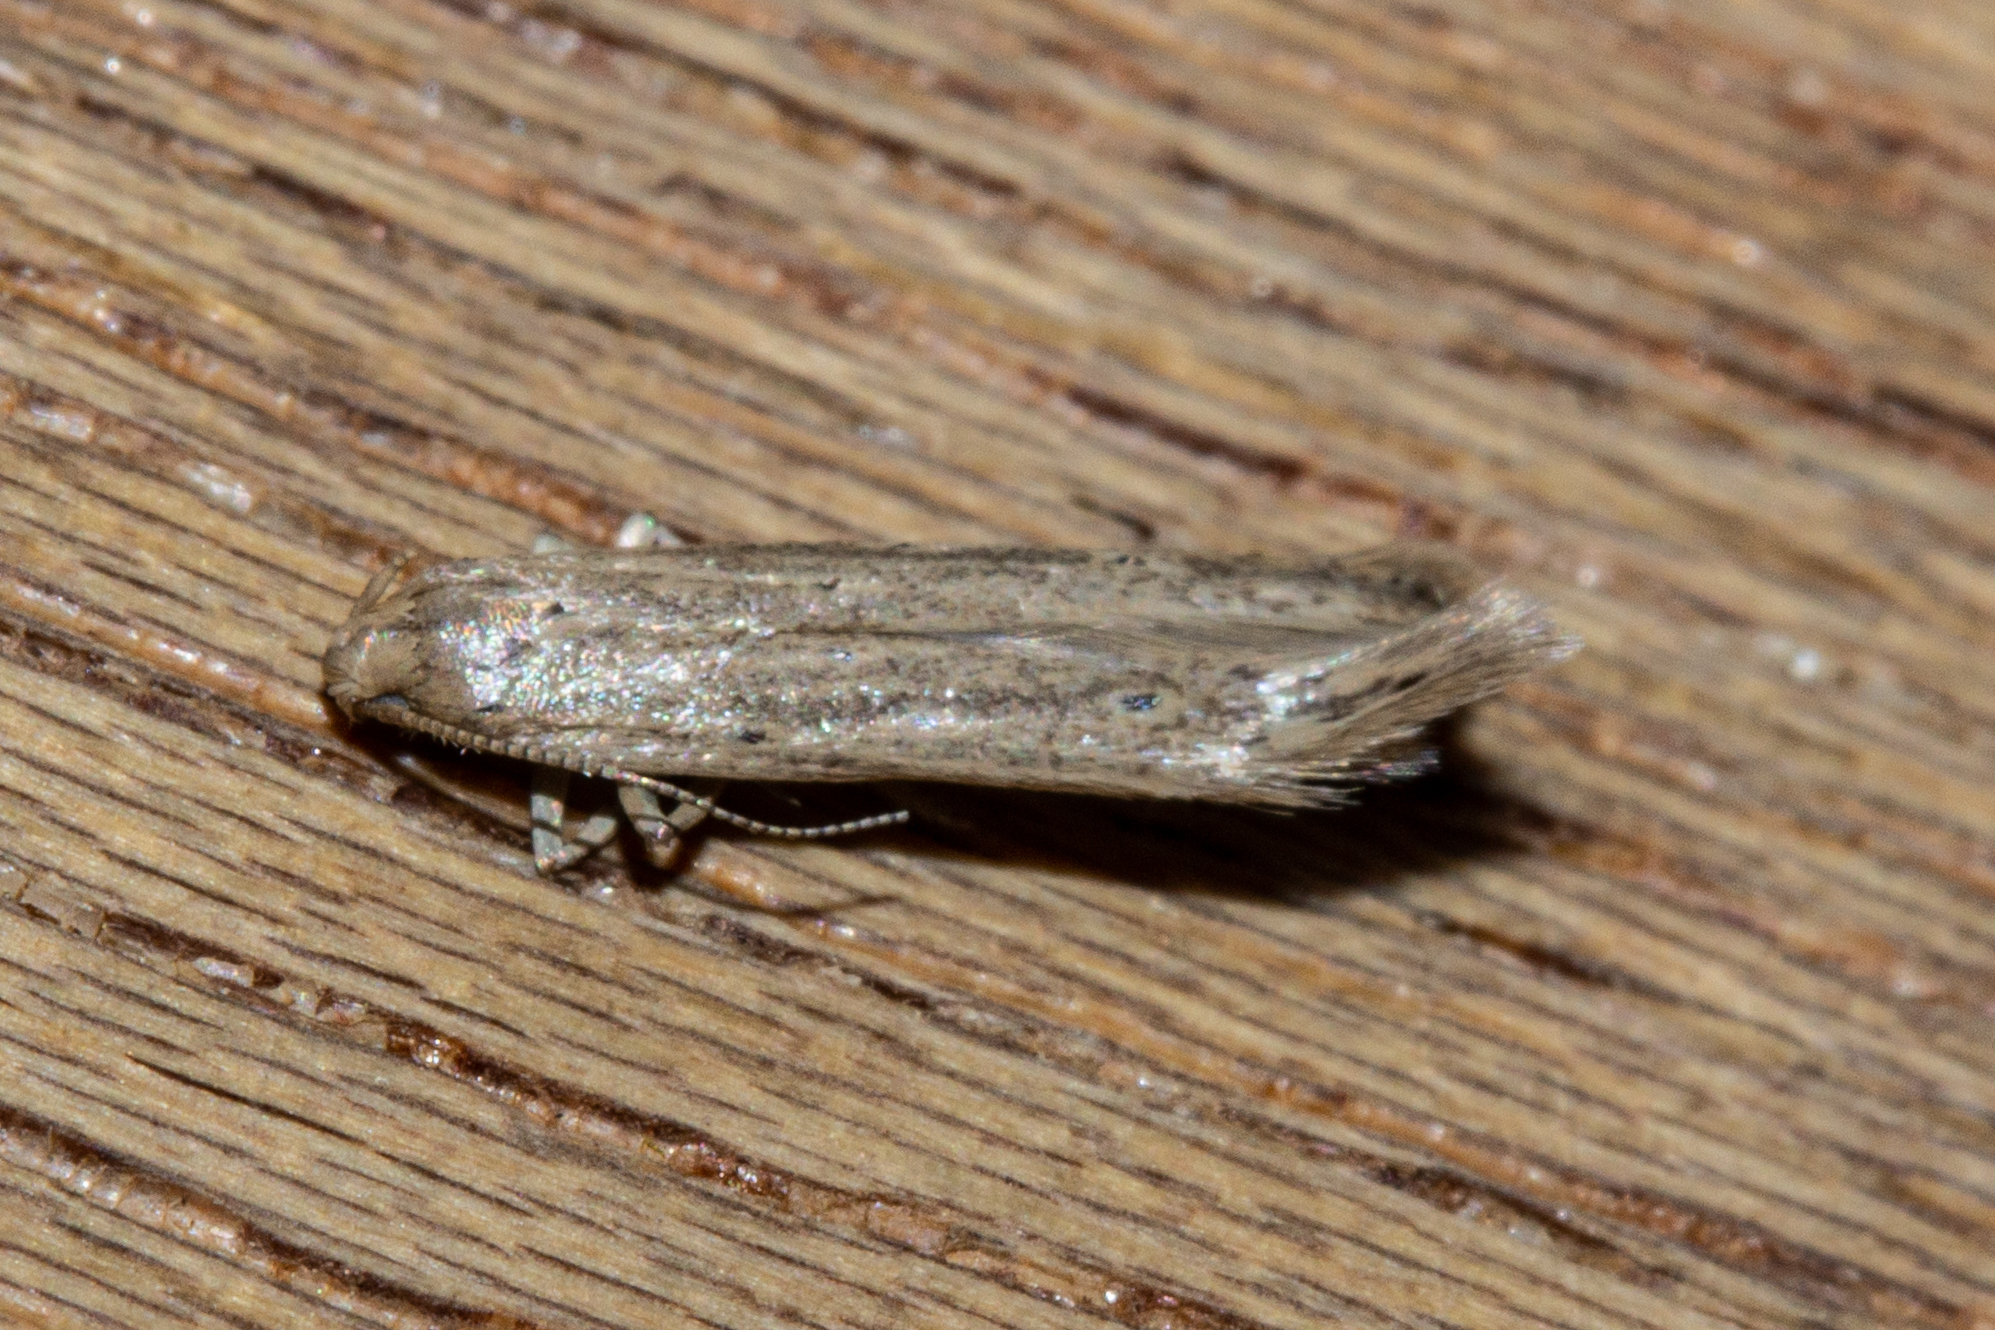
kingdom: Animalia
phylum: Arthropoda
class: Insecta
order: Lepidoptera
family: Gelechiidae
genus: Epiphthora
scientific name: Epiphthora calamogonus
